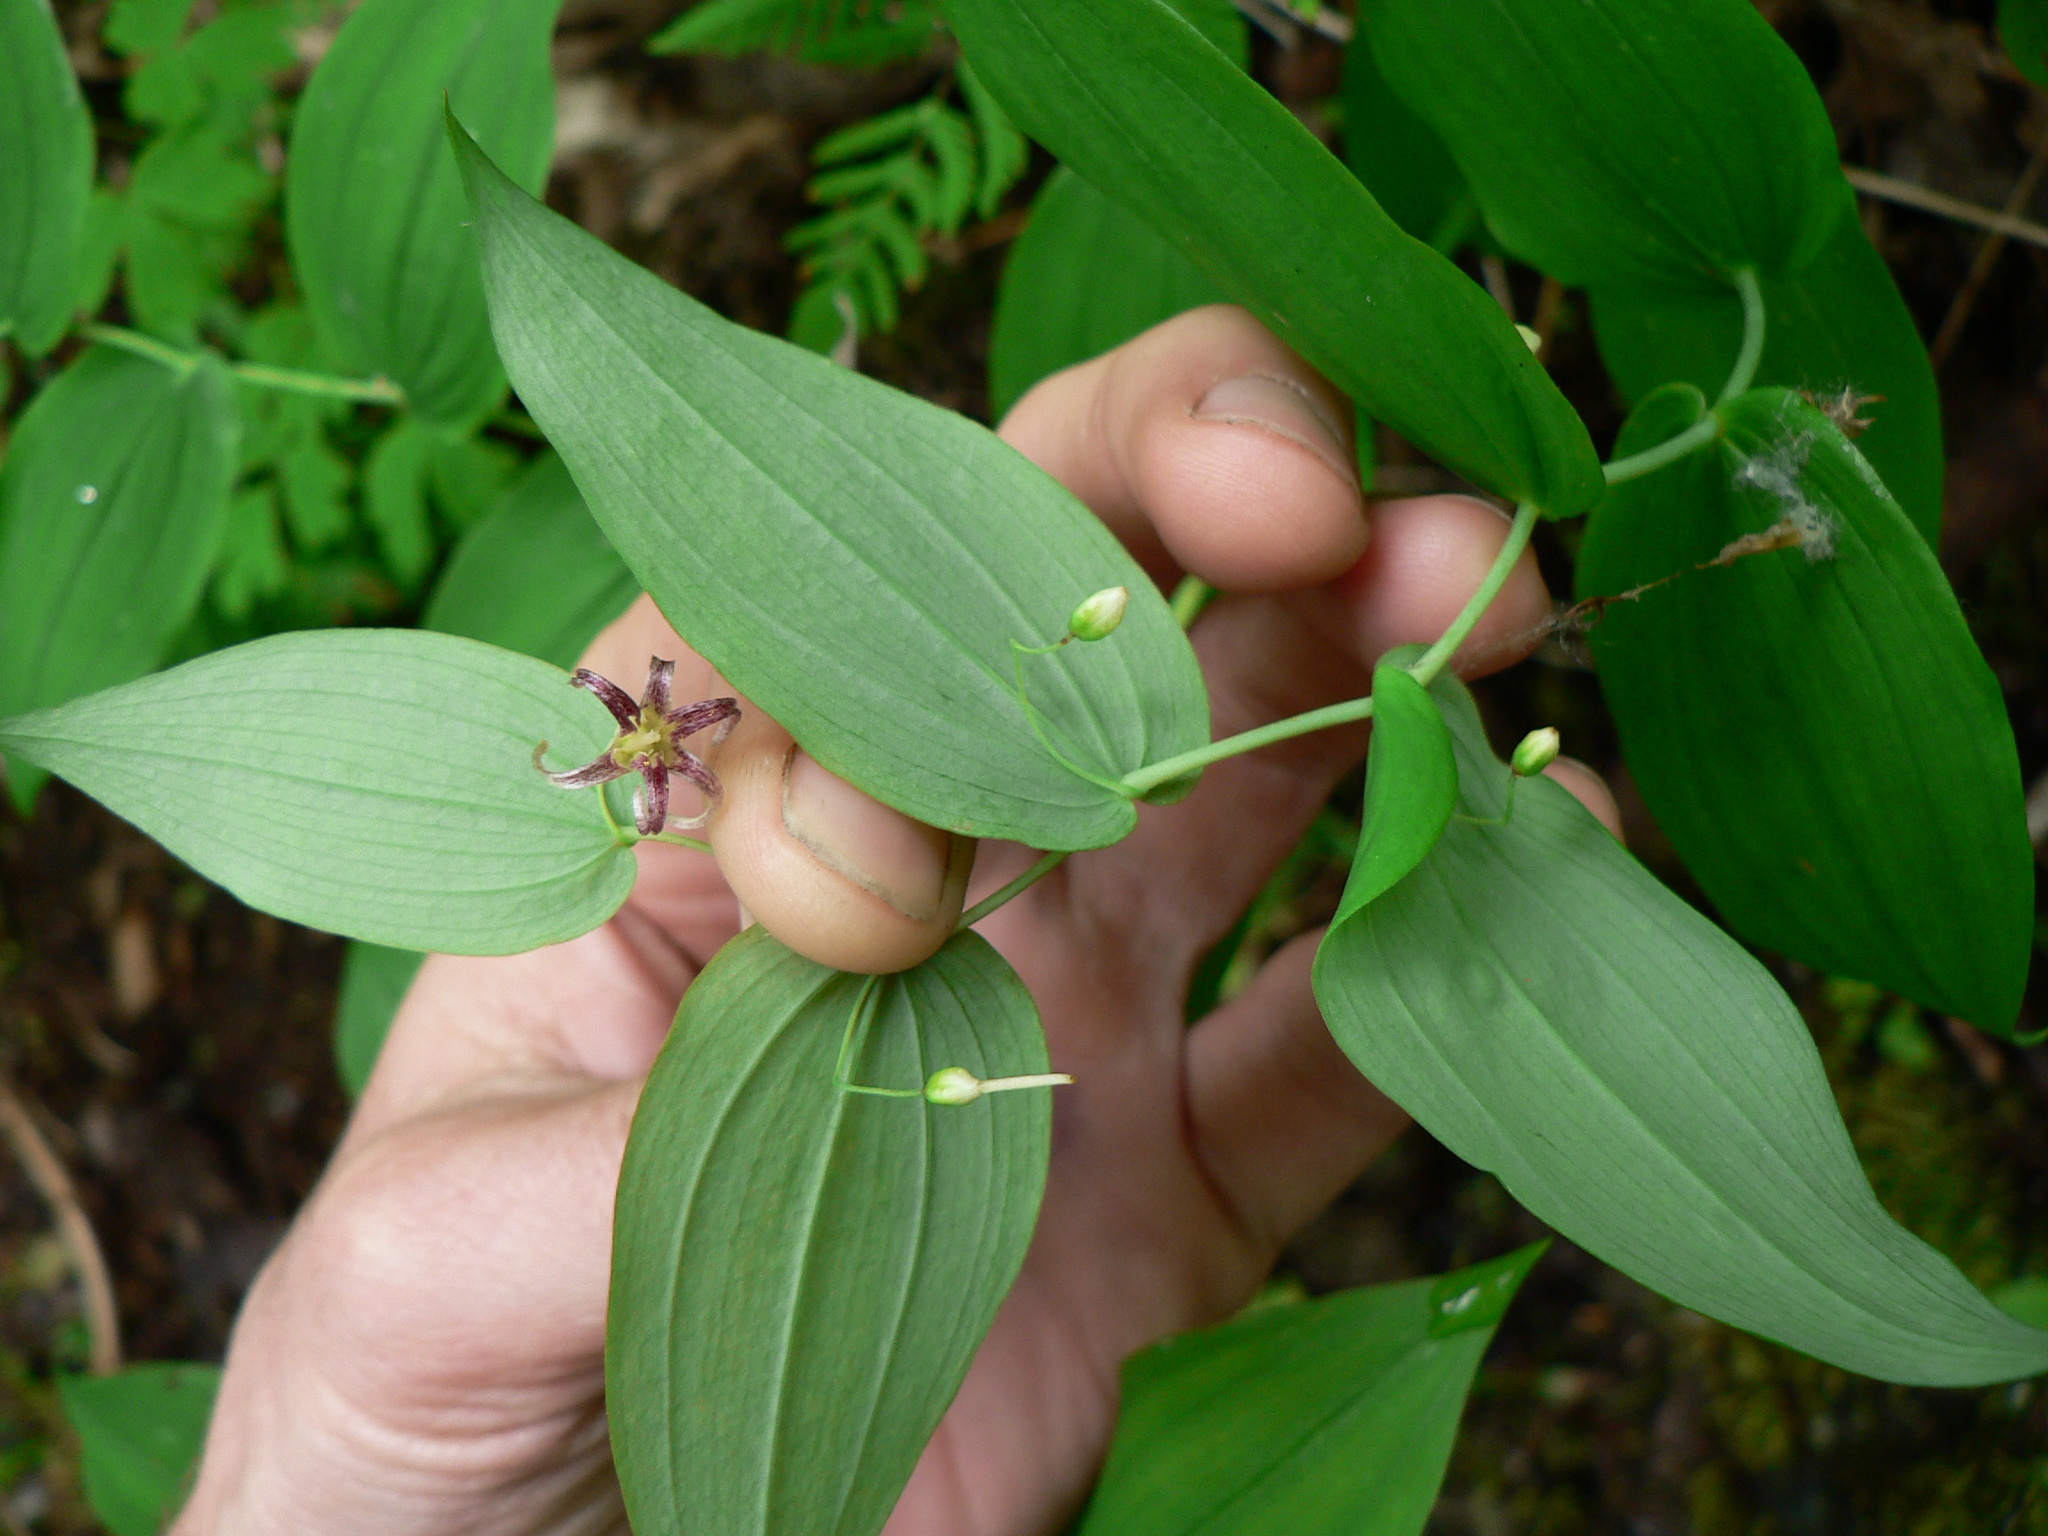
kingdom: Plantae
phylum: Tracheophyta
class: Liliopsida
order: Liliales
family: Liliaceae
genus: Streptopus
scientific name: Streptopus amplexifolius
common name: Clasp twisted stalk
